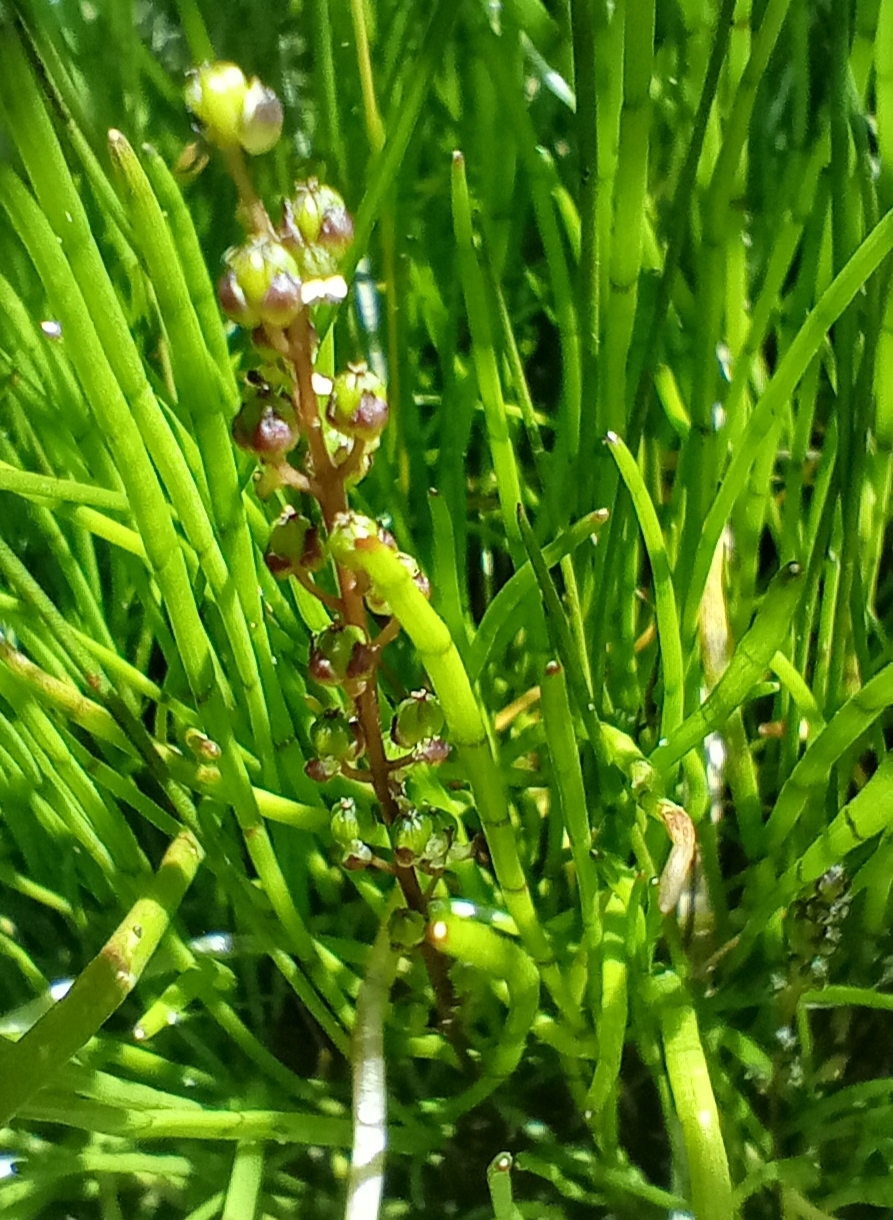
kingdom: Plantae
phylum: Tracheophyta
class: Liliopsida
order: Alismatales
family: Juncaginaceae
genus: Triglochin
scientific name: Triglochin striata
